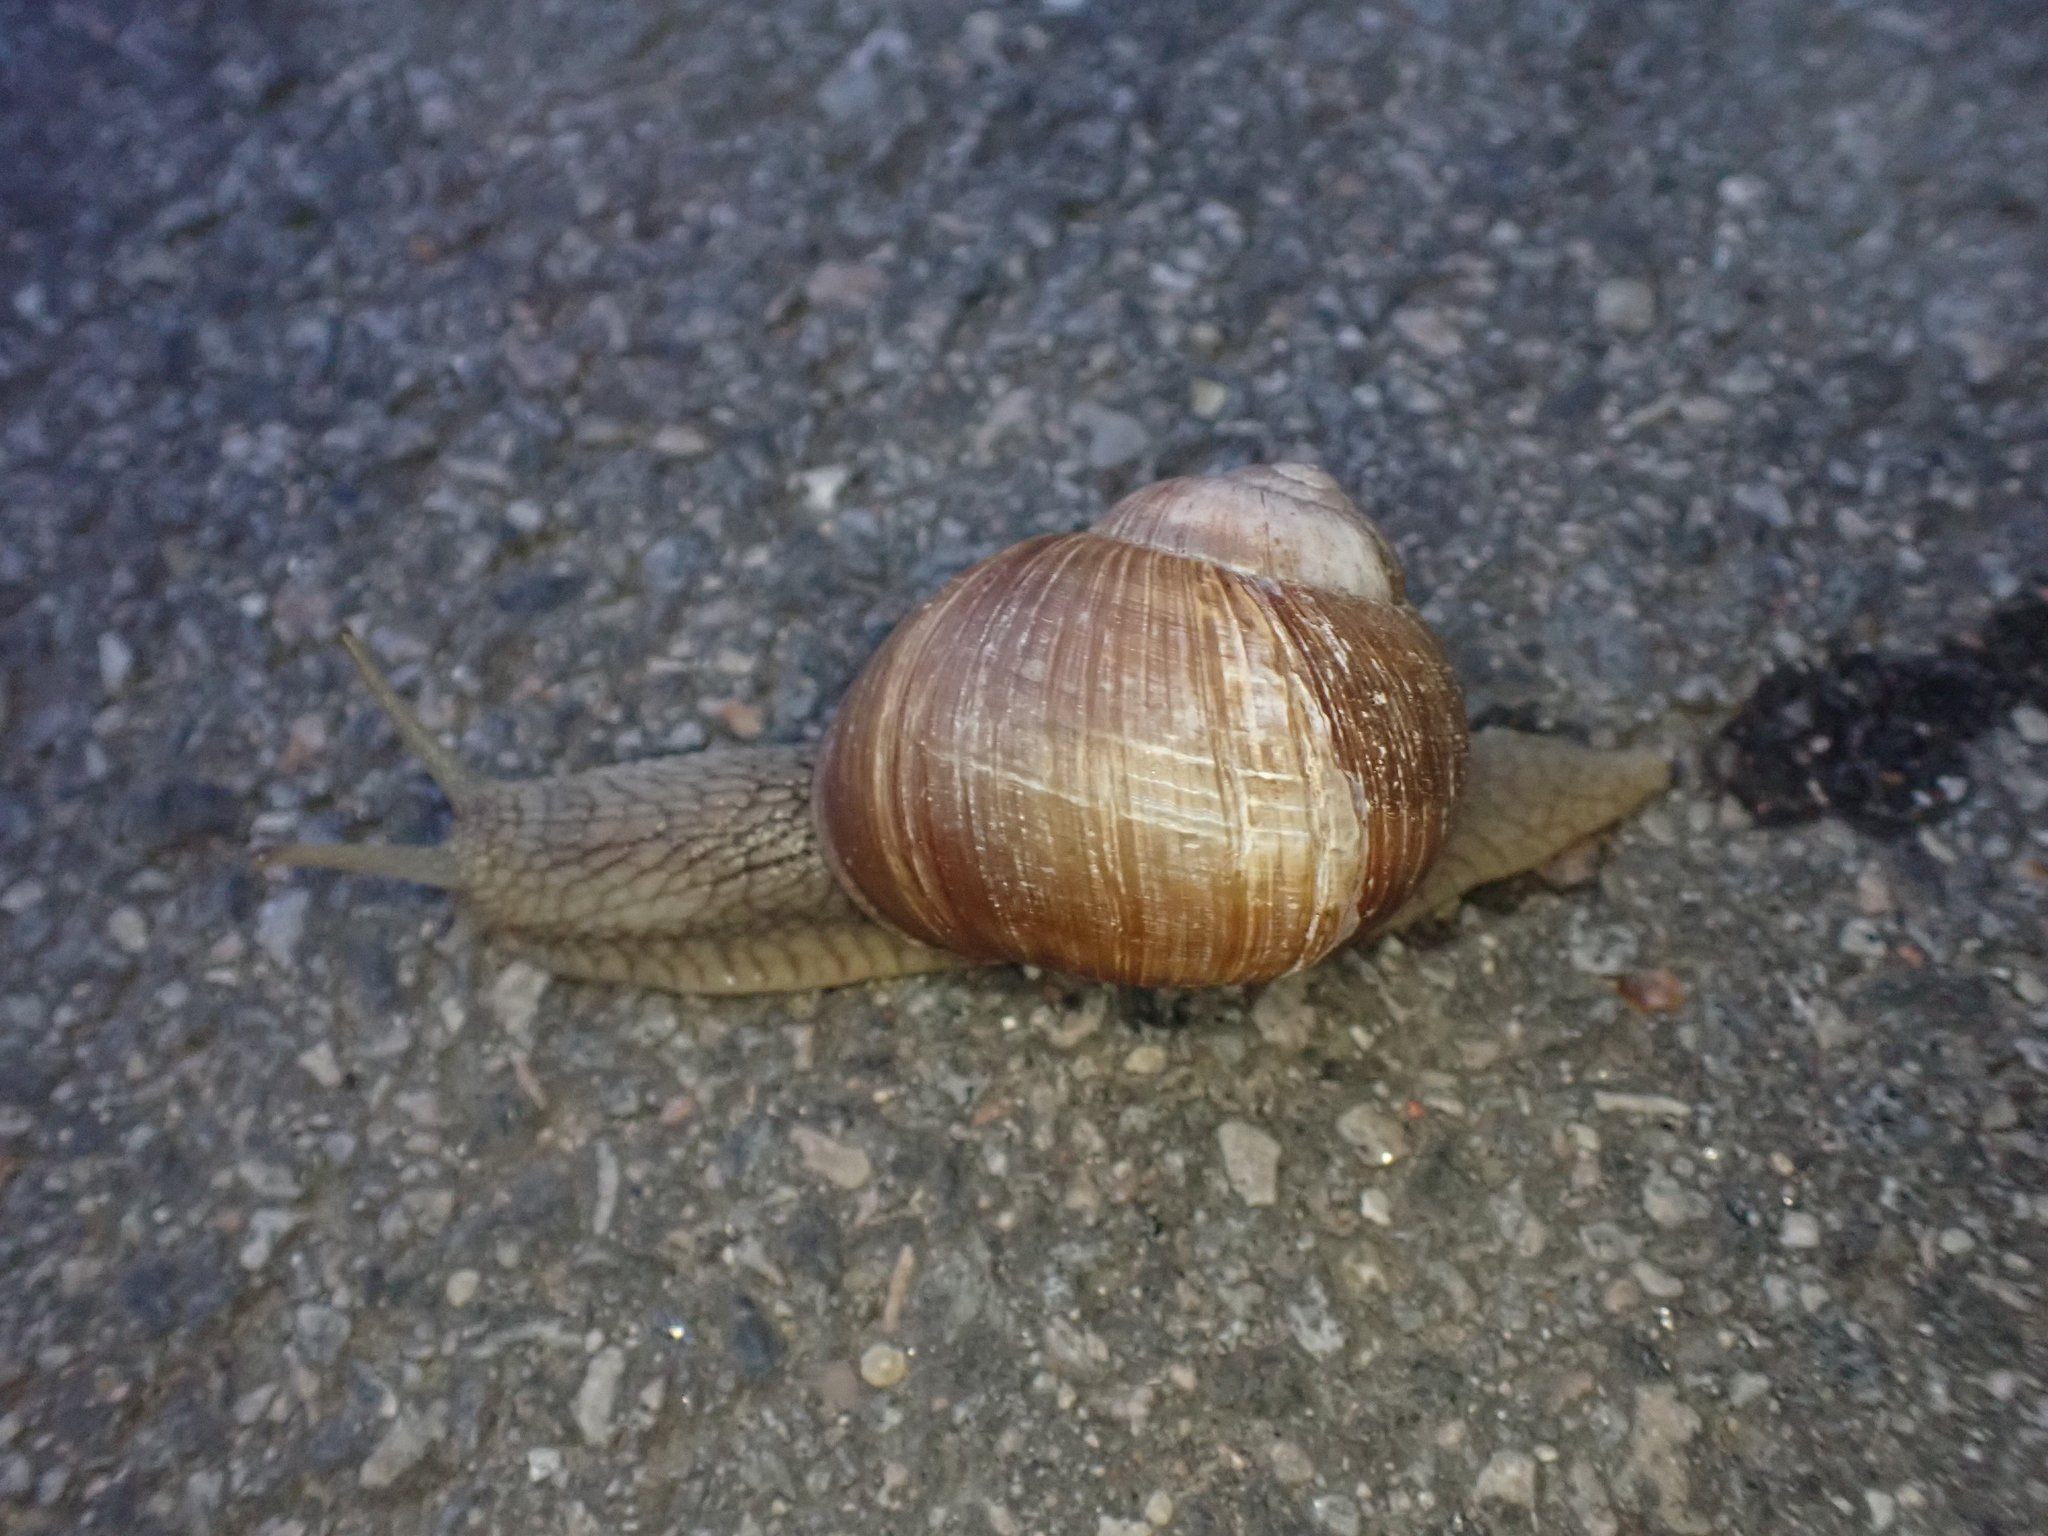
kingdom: Animalia
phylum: Mollusca
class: Gastropoda
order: Stylommatophora
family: Helicidae
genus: Helix
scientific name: Helix pomatia
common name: Roman snail
